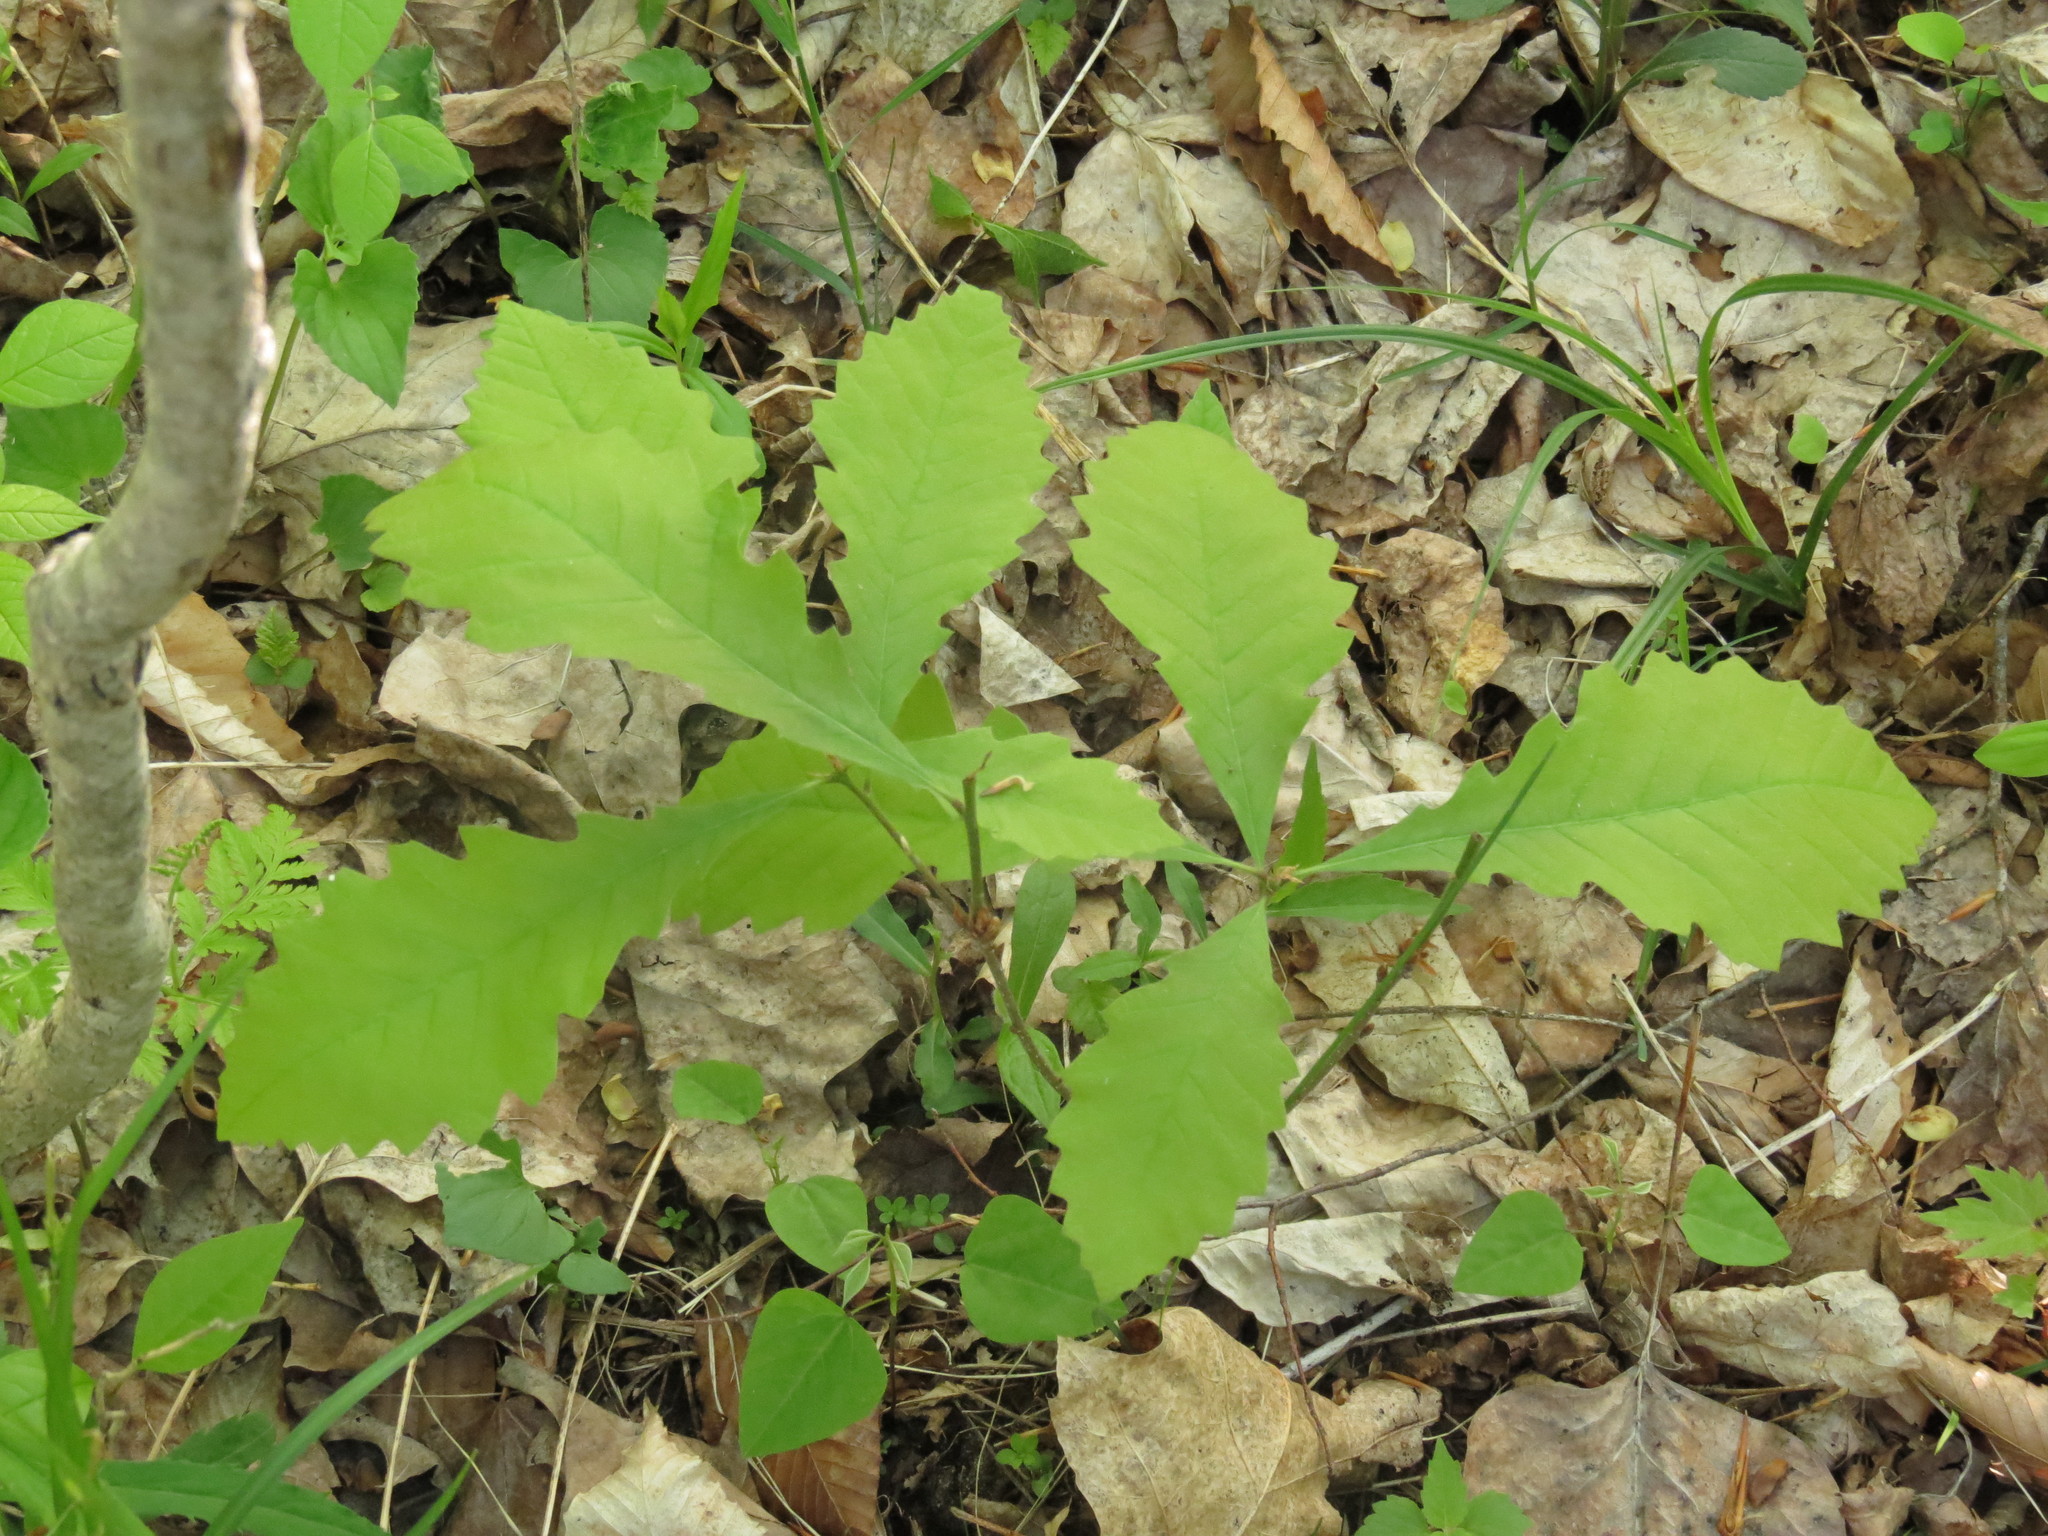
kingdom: Plantae
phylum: Tracheophyta
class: Magnoliopsida
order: Fagales
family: Fagaceae
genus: Quercus
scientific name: Quercus macrocarpa
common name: Bur oak
